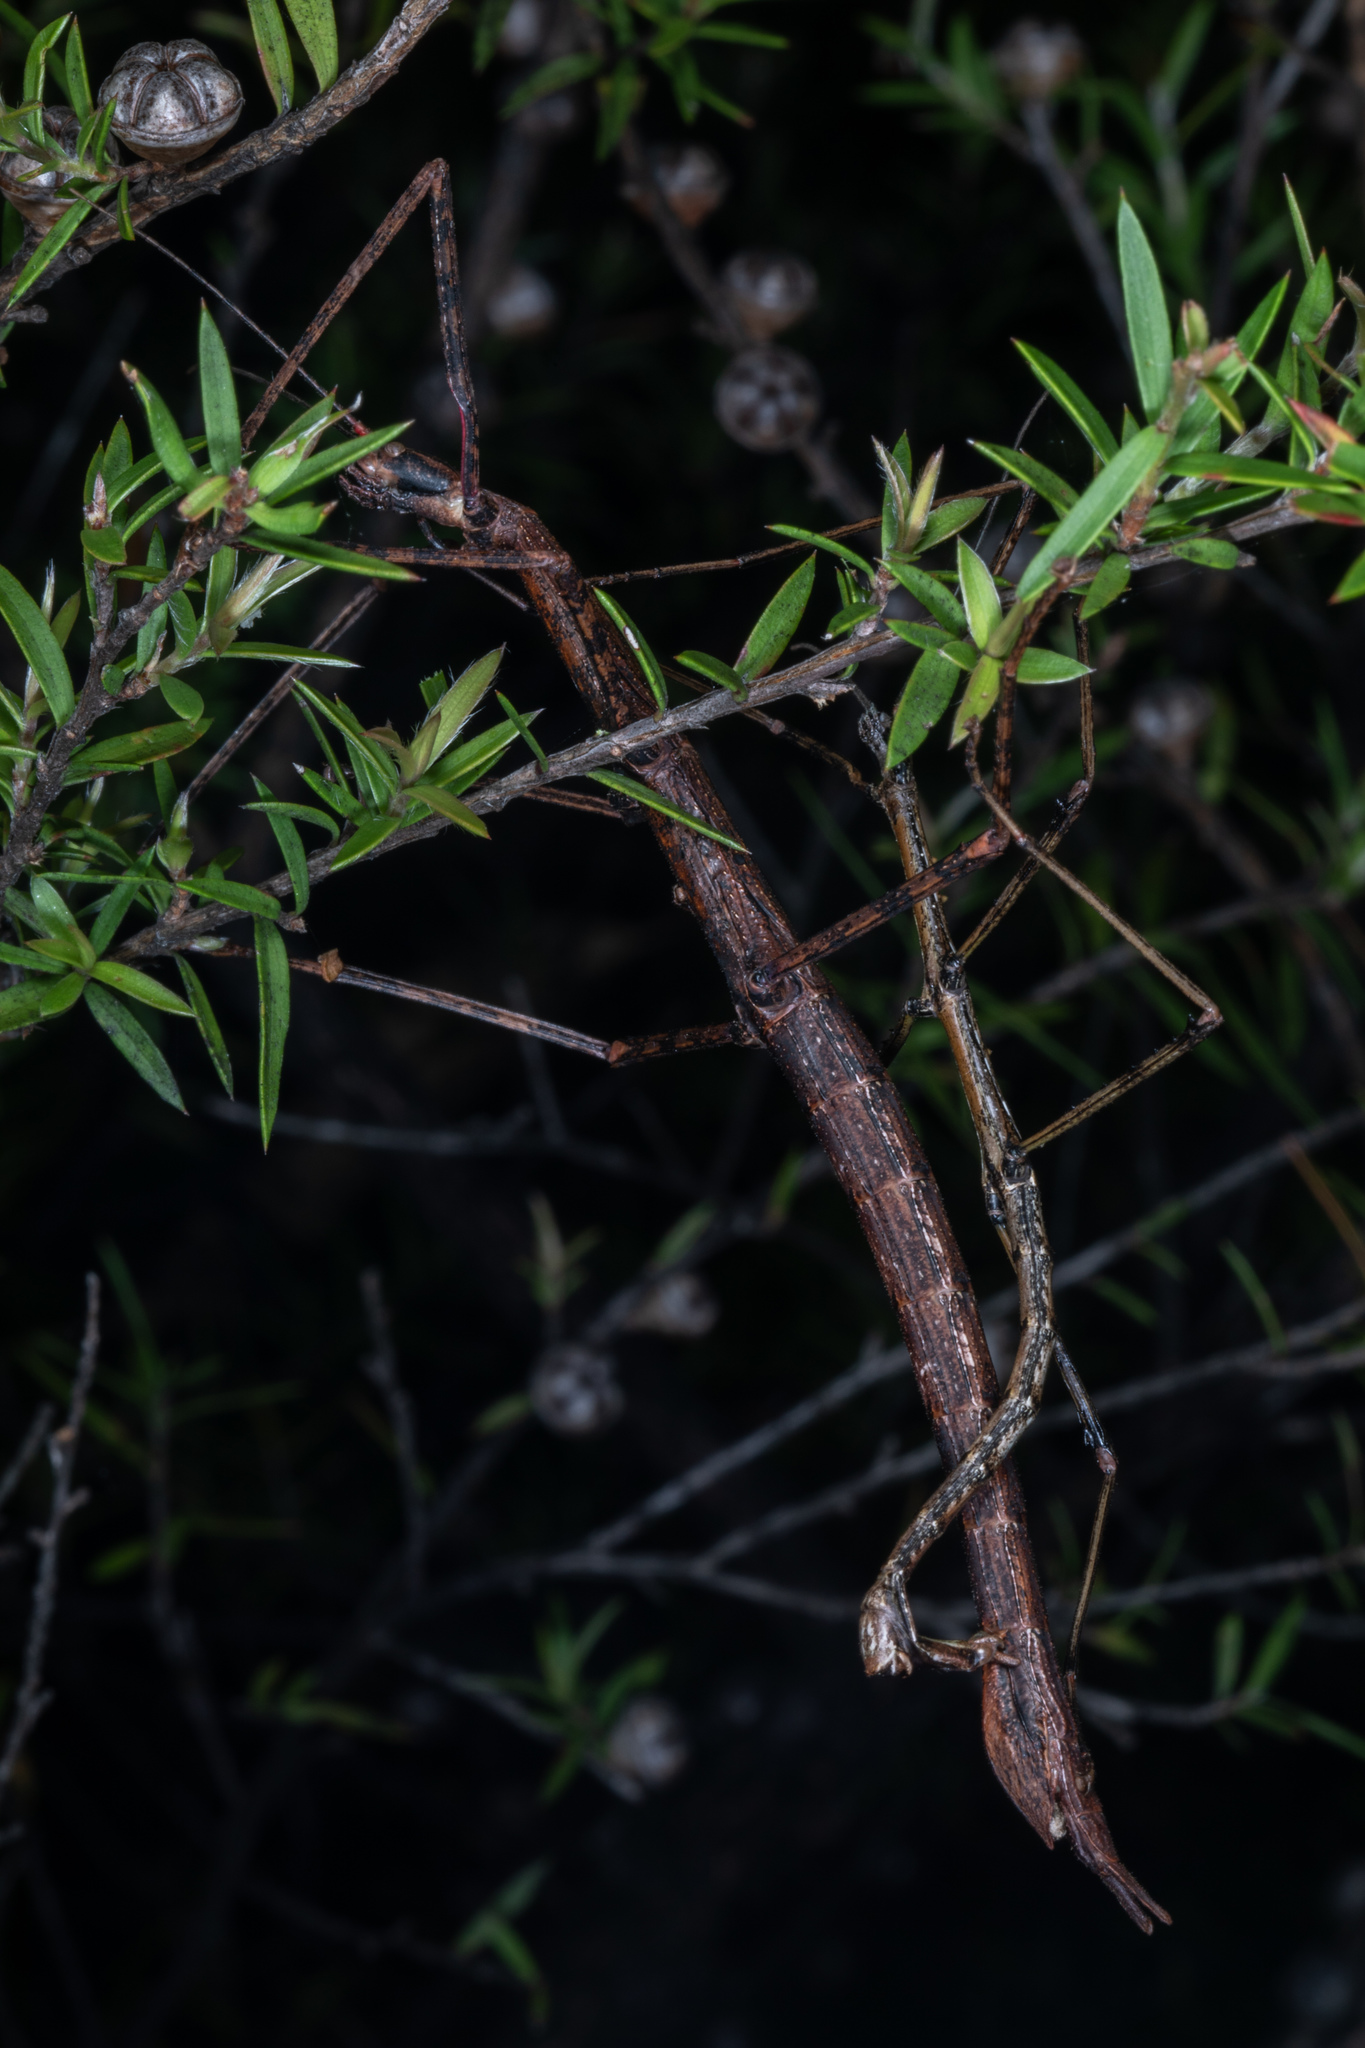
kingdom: Animalia
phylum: Arthropoda
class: Insecta
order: Phasmida
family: Phasmatidae
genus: Clitarchus
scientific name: Clitarchus hookeri
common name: Smooth stick insect
